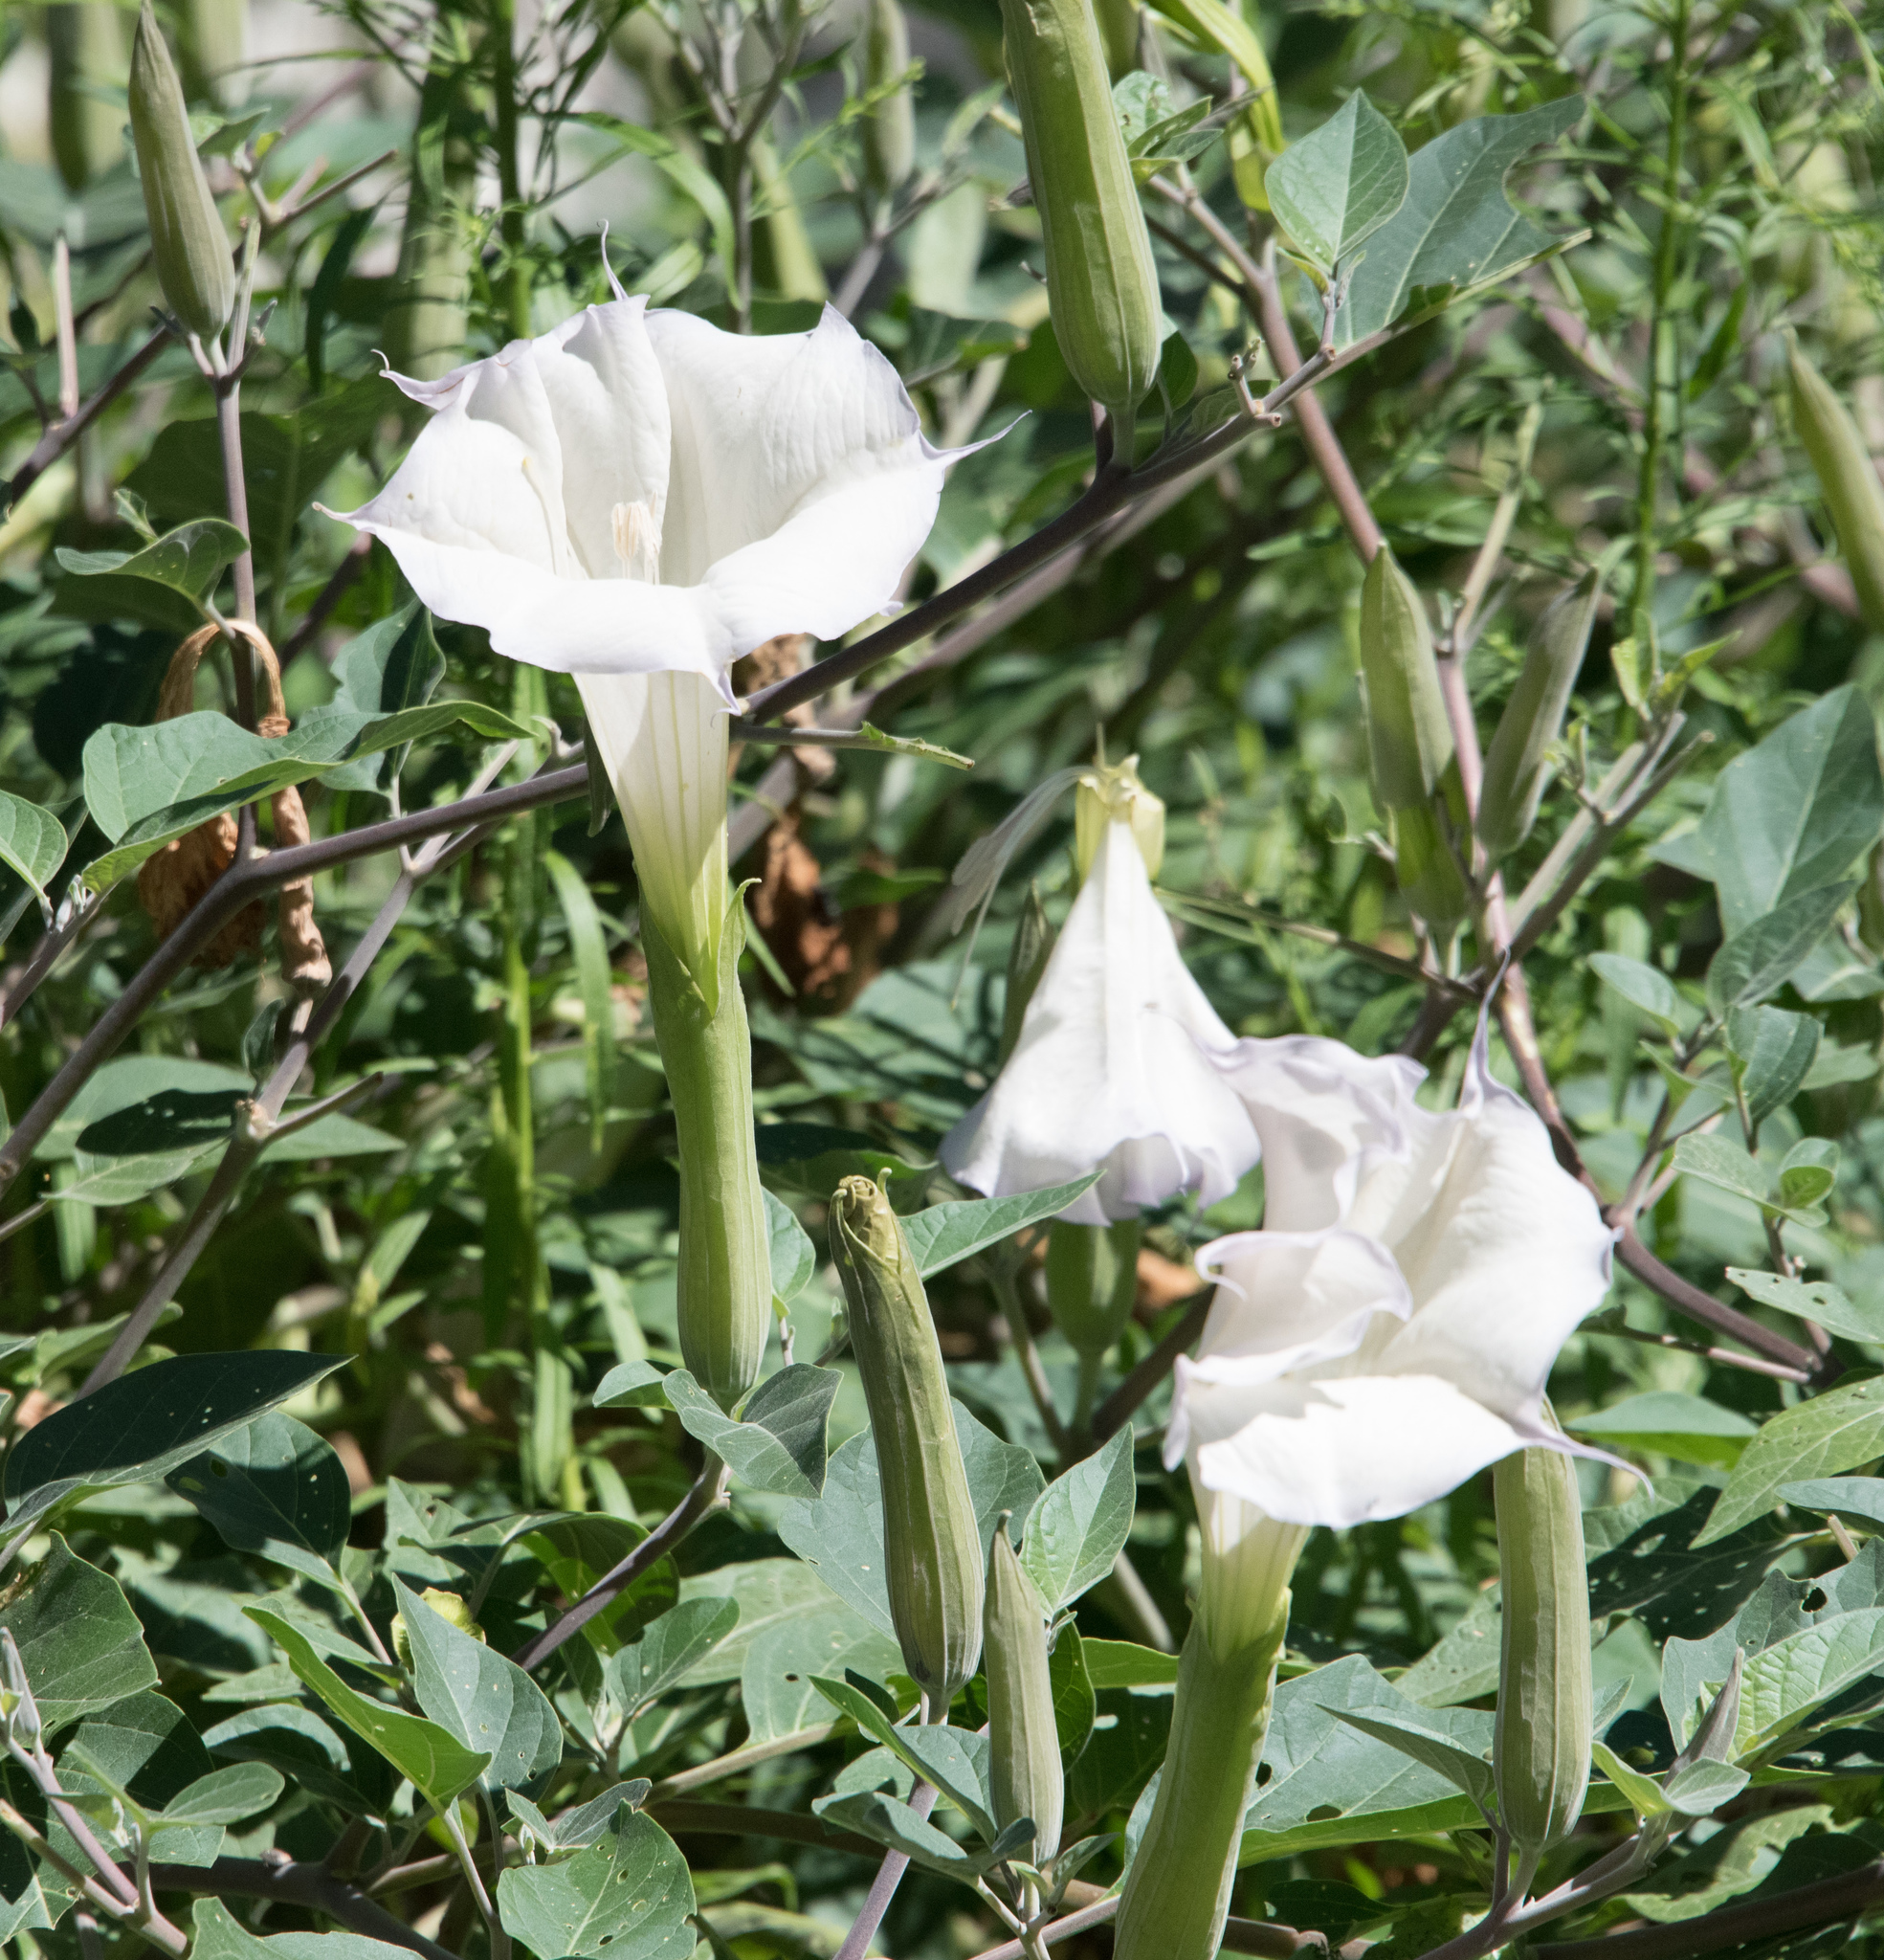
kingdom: Plantae
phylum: Tracheophyta
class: Magnoliopsida
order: Solanales
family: Solanaceae
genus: Datura
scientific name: Datura wrightii
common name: Sacred thorn-apple
